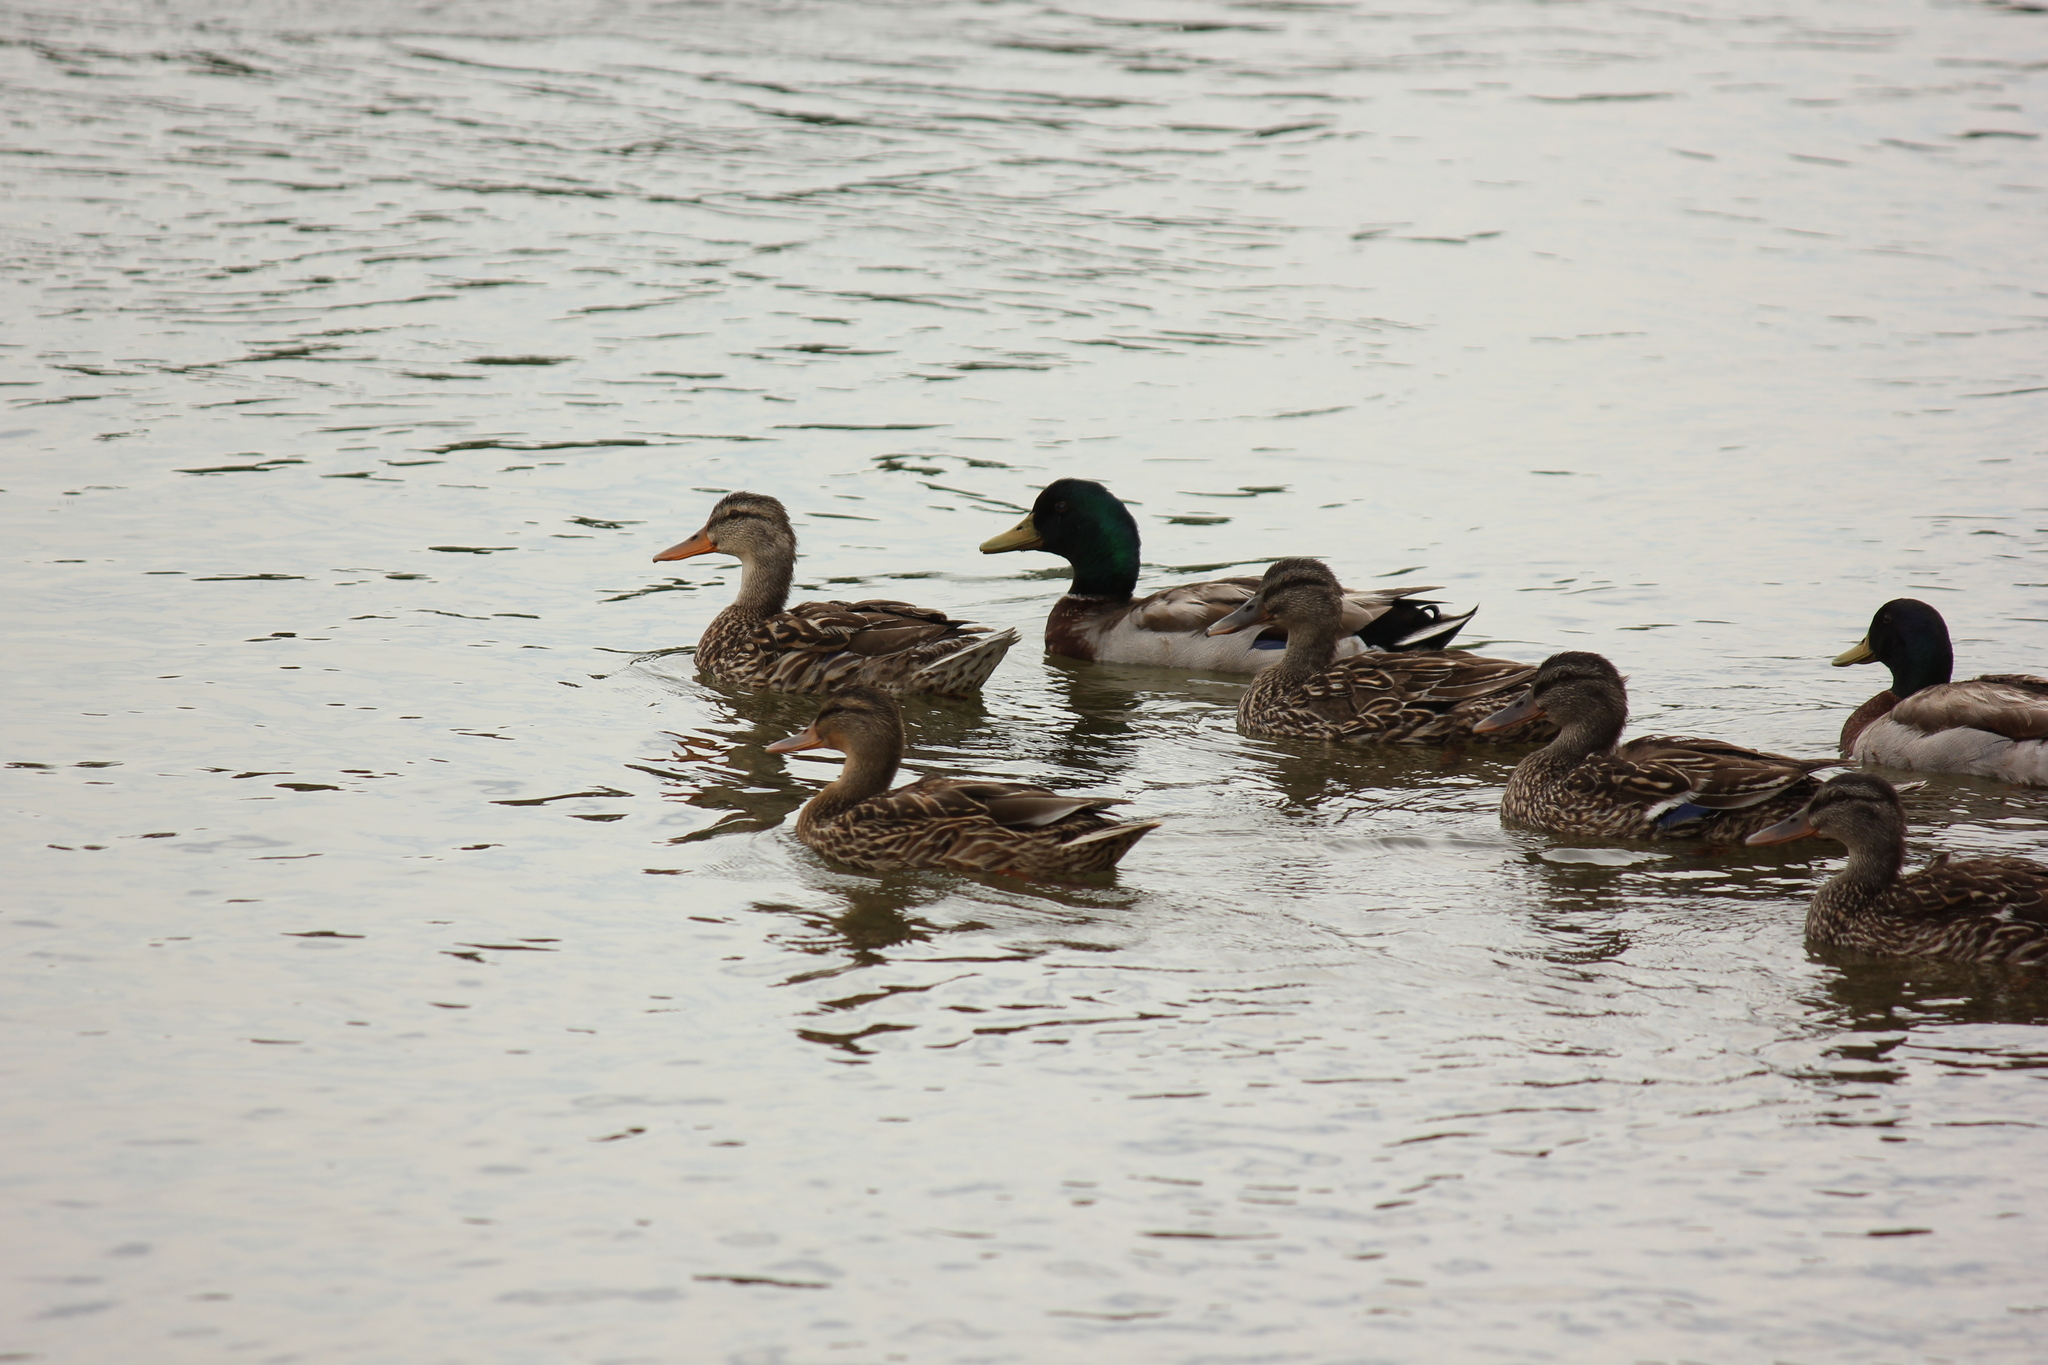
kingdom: Animalia
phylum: Chordata
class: Aves
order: Anseriformes
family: Anatidae
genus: Anas
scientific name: Anas platyrhynchos
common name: Mallard
